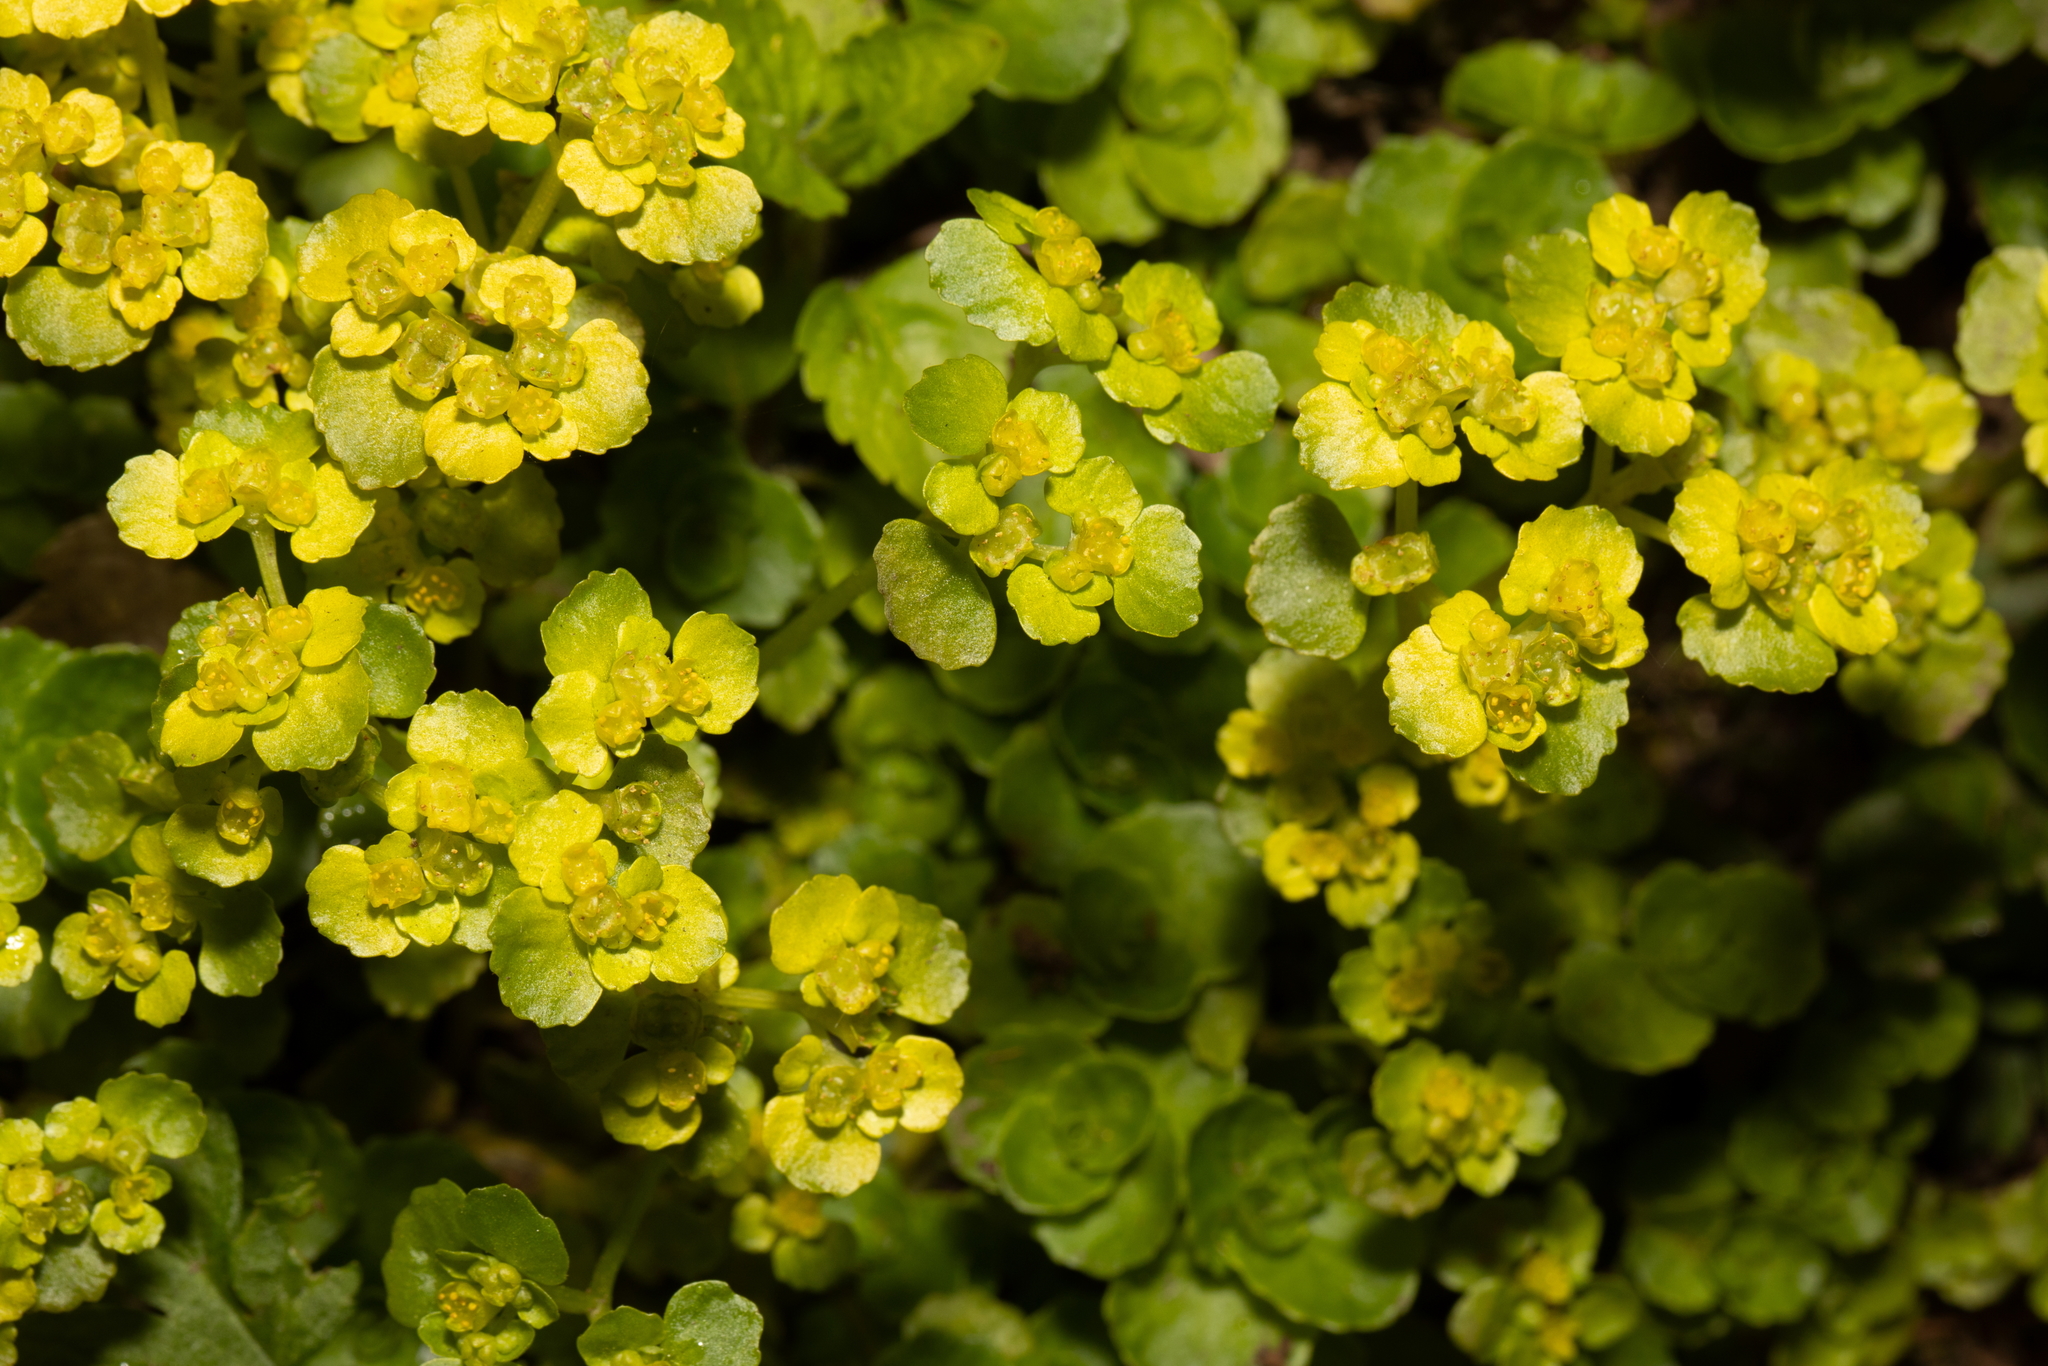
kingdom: Plantae
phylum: Tracheophyta
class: Magnoliopsida
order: Saxifragales
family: Saxifragaceae
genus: Chrysosplenium
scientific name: Chrysosplenium oppositifolium
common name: Opposite-leaved golden-saxifrage
